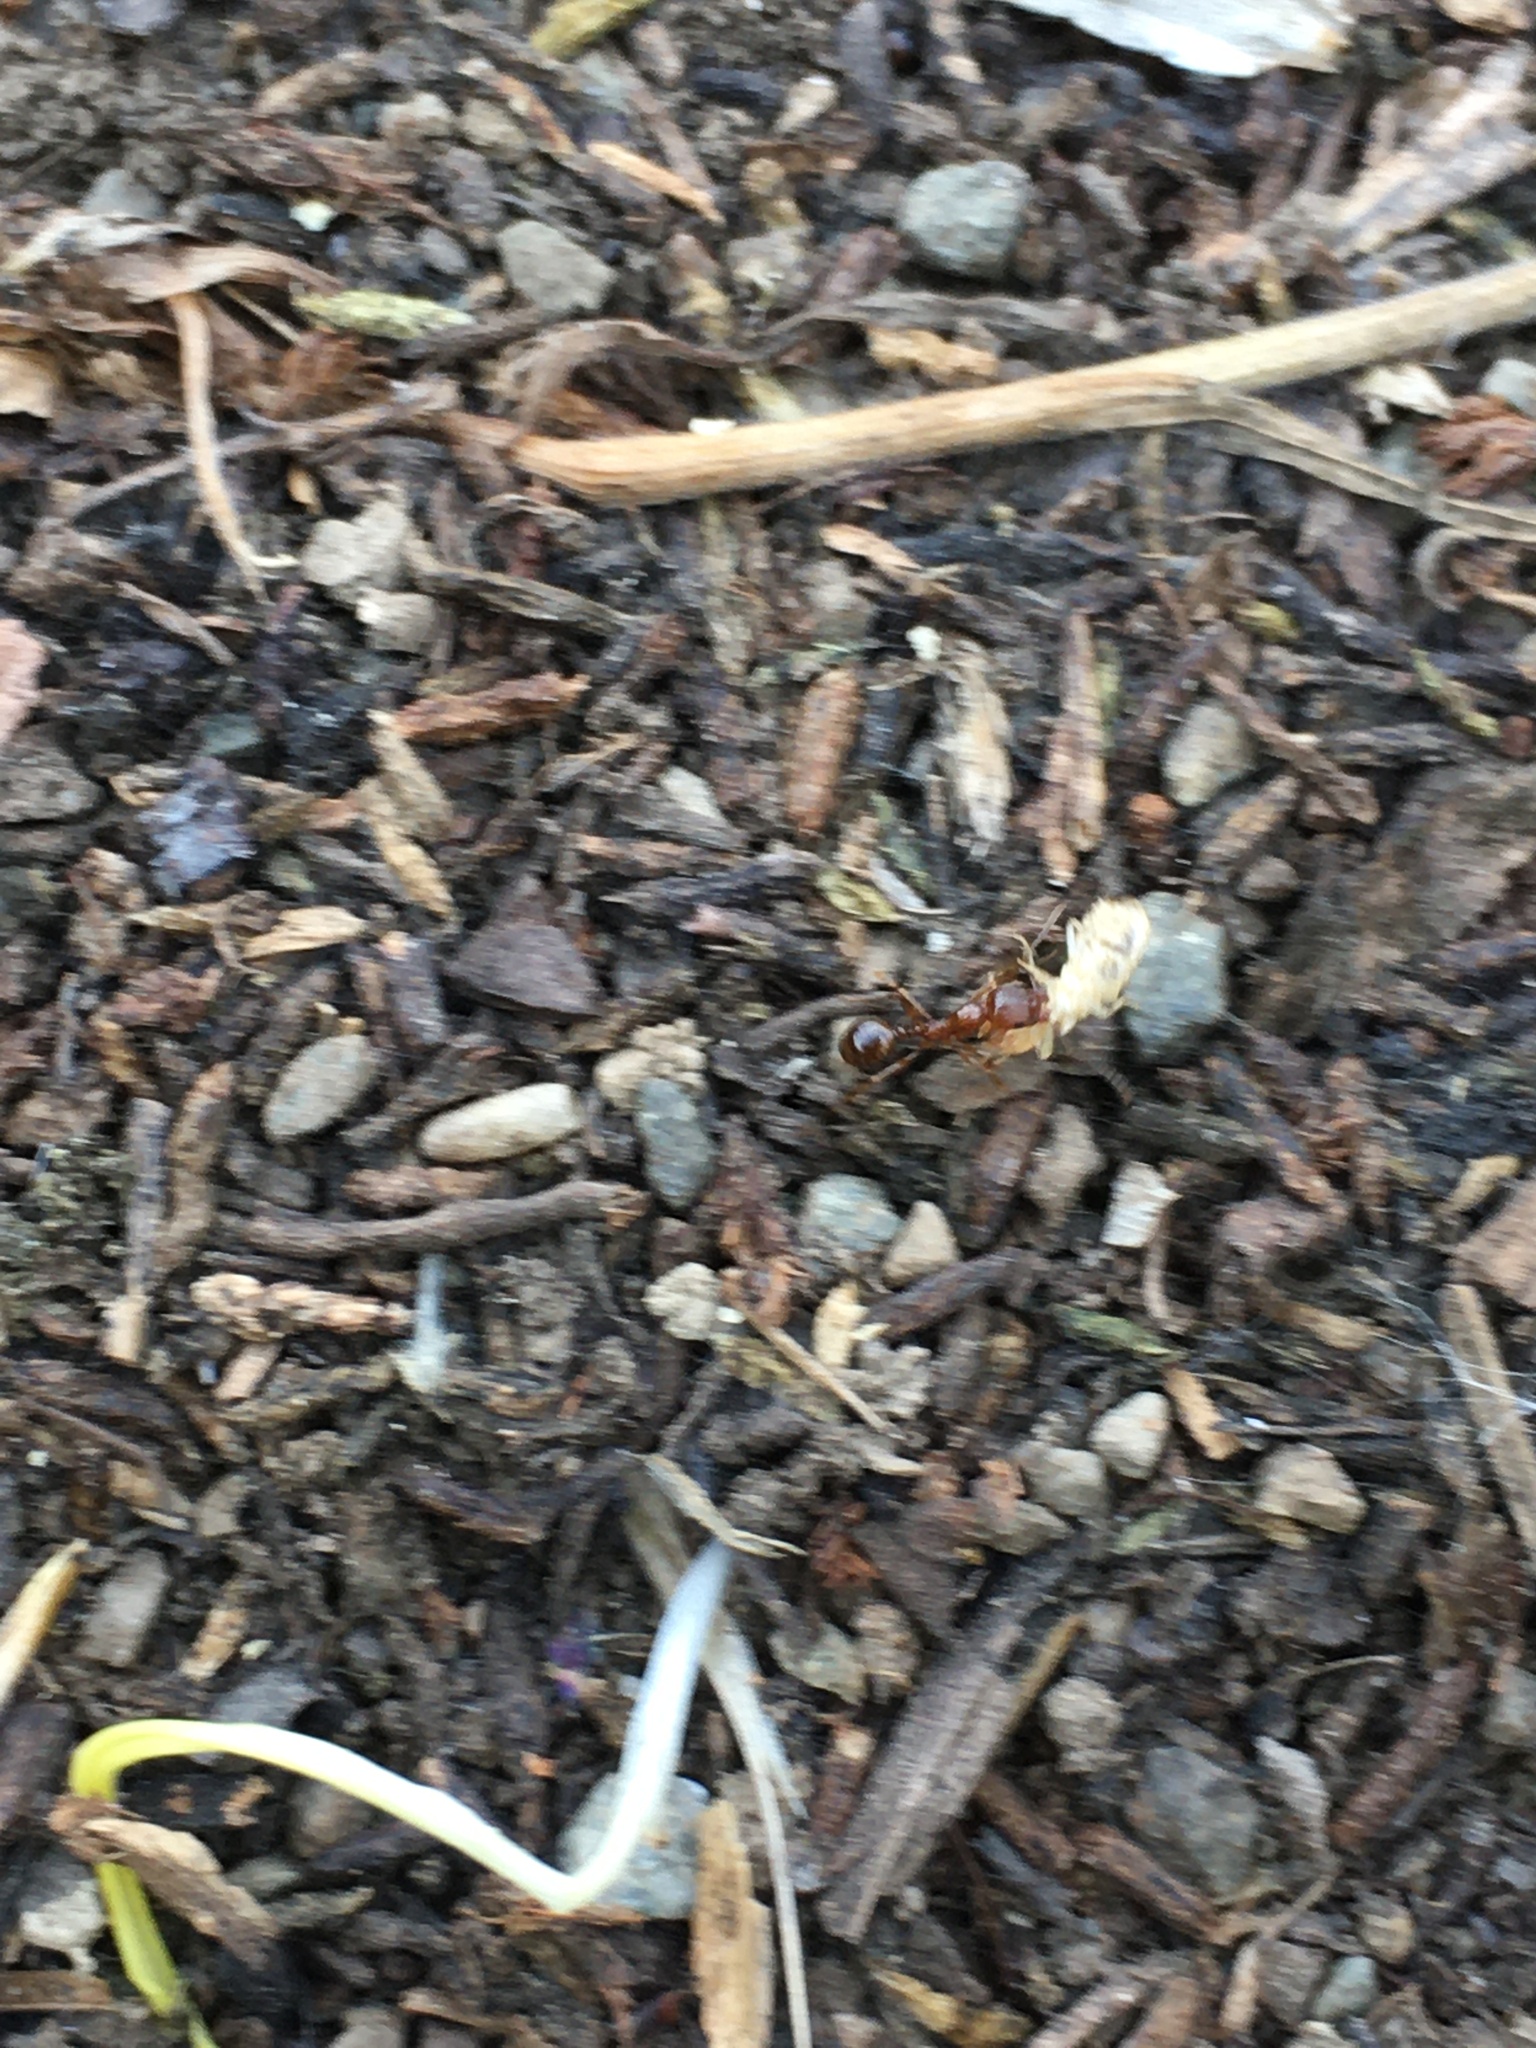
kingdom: Animalia
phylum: Arthropoda
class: Insecta
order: Hymenoptera
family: Formicidae
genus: Aphaenogaster
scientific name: Aphaenogaster occidentalis
